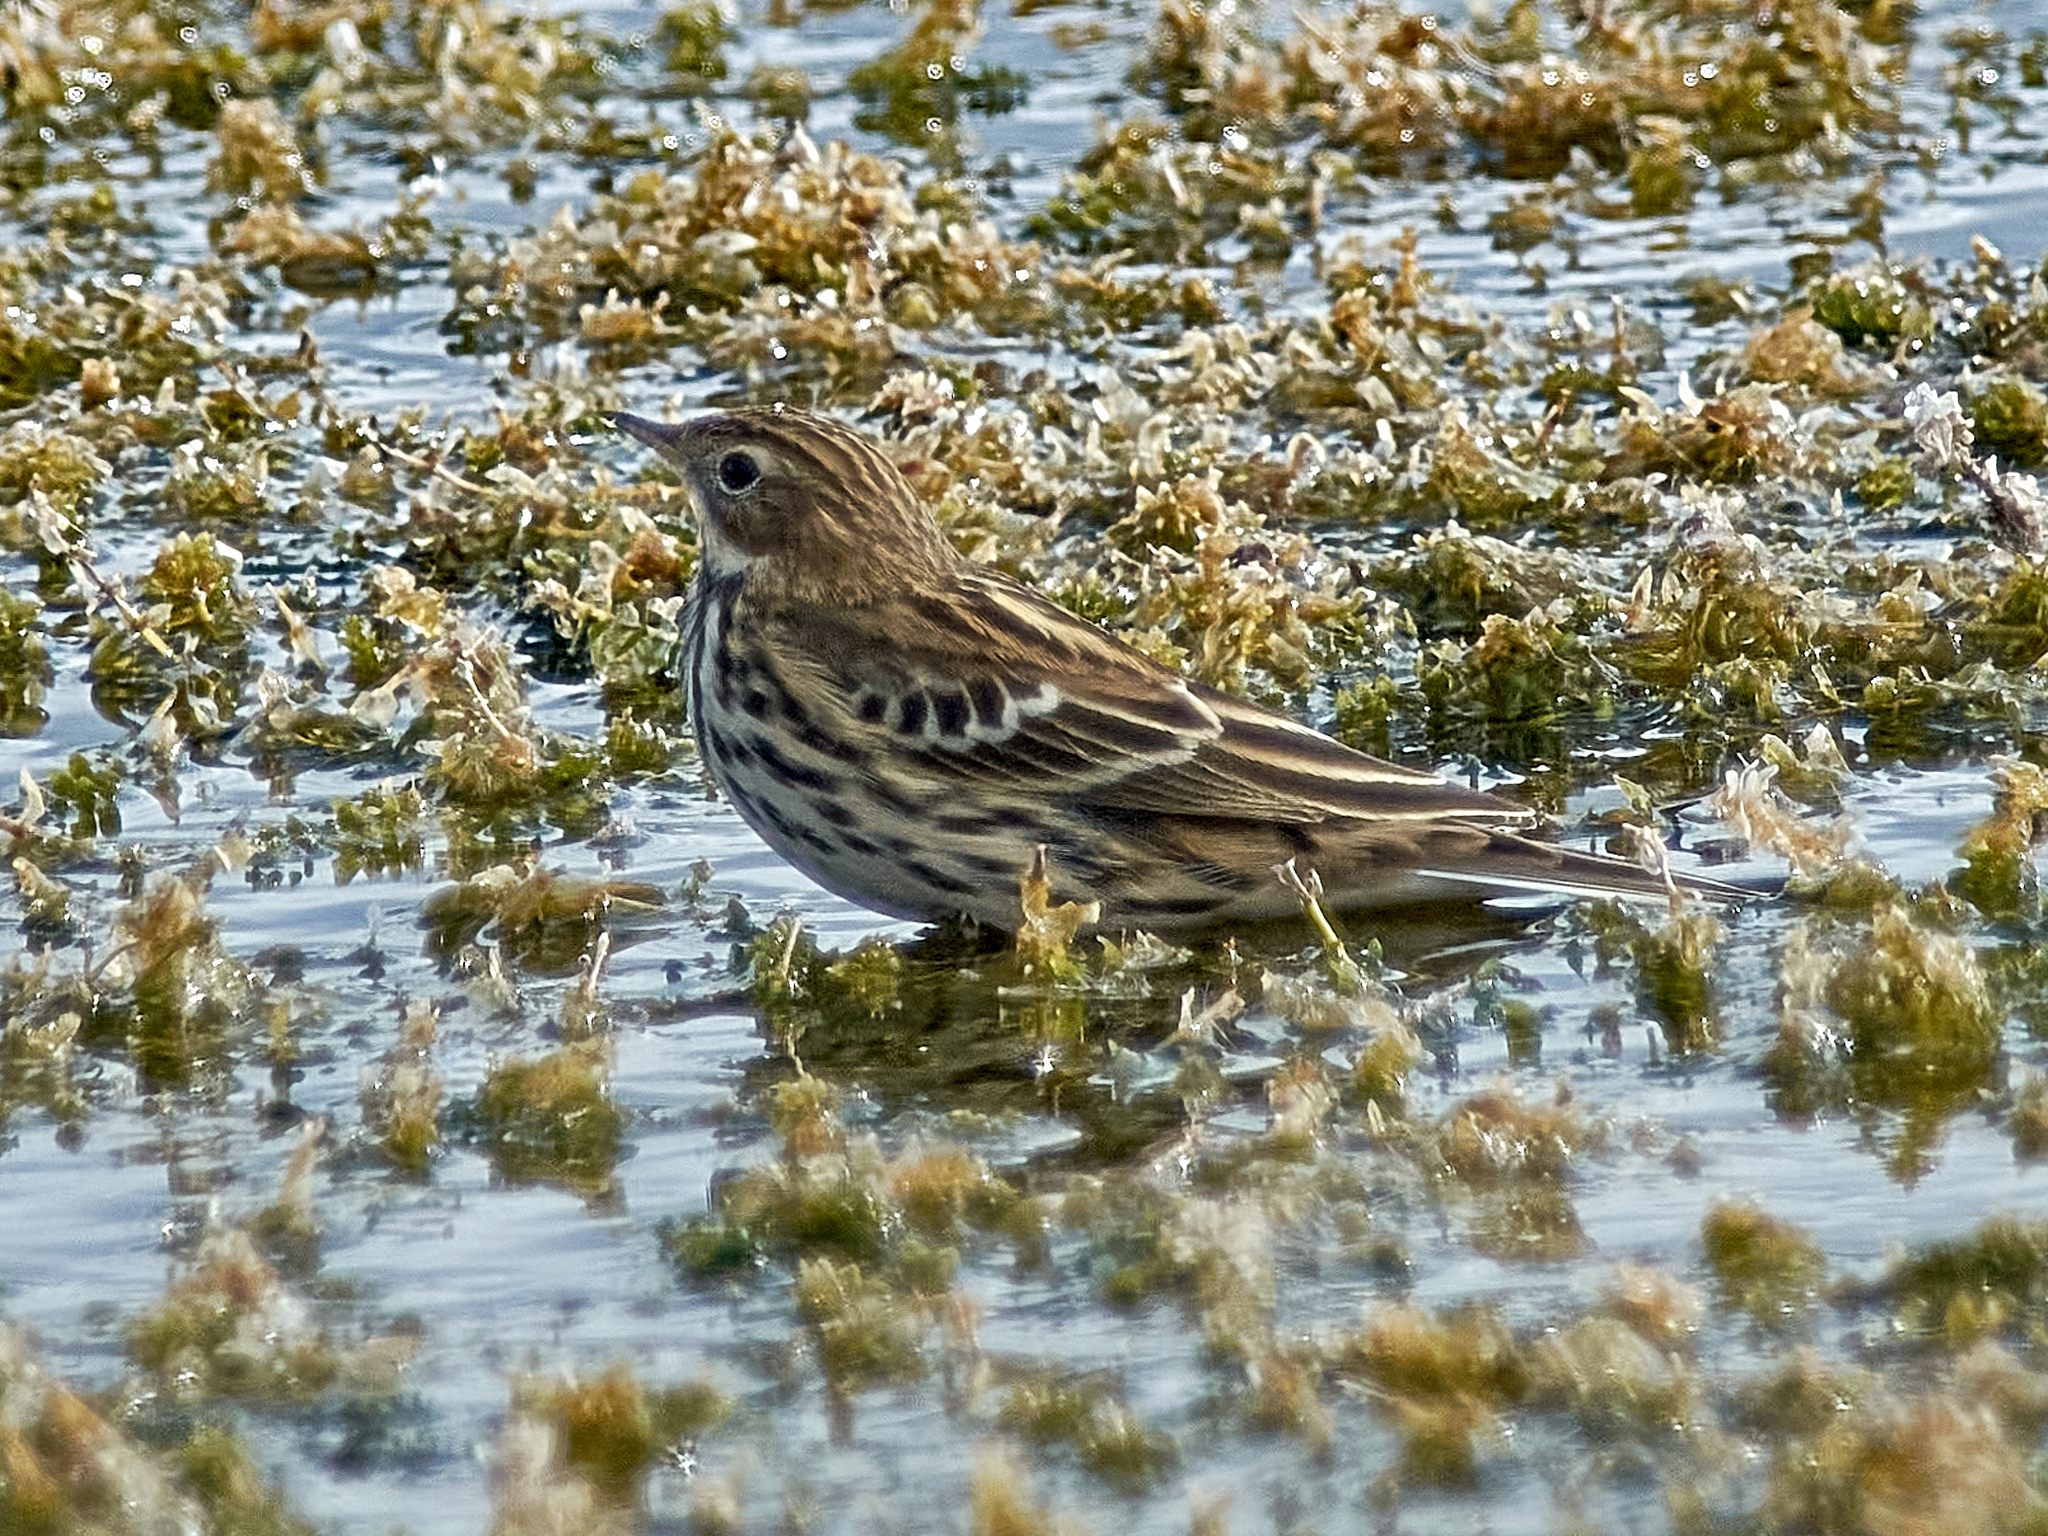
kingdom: Animalia
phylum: Chordata
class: Aves
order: Passeriformes
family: Motacillidae
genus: Anthus
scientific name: Anthus cervinus
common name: Red-throated pipit
